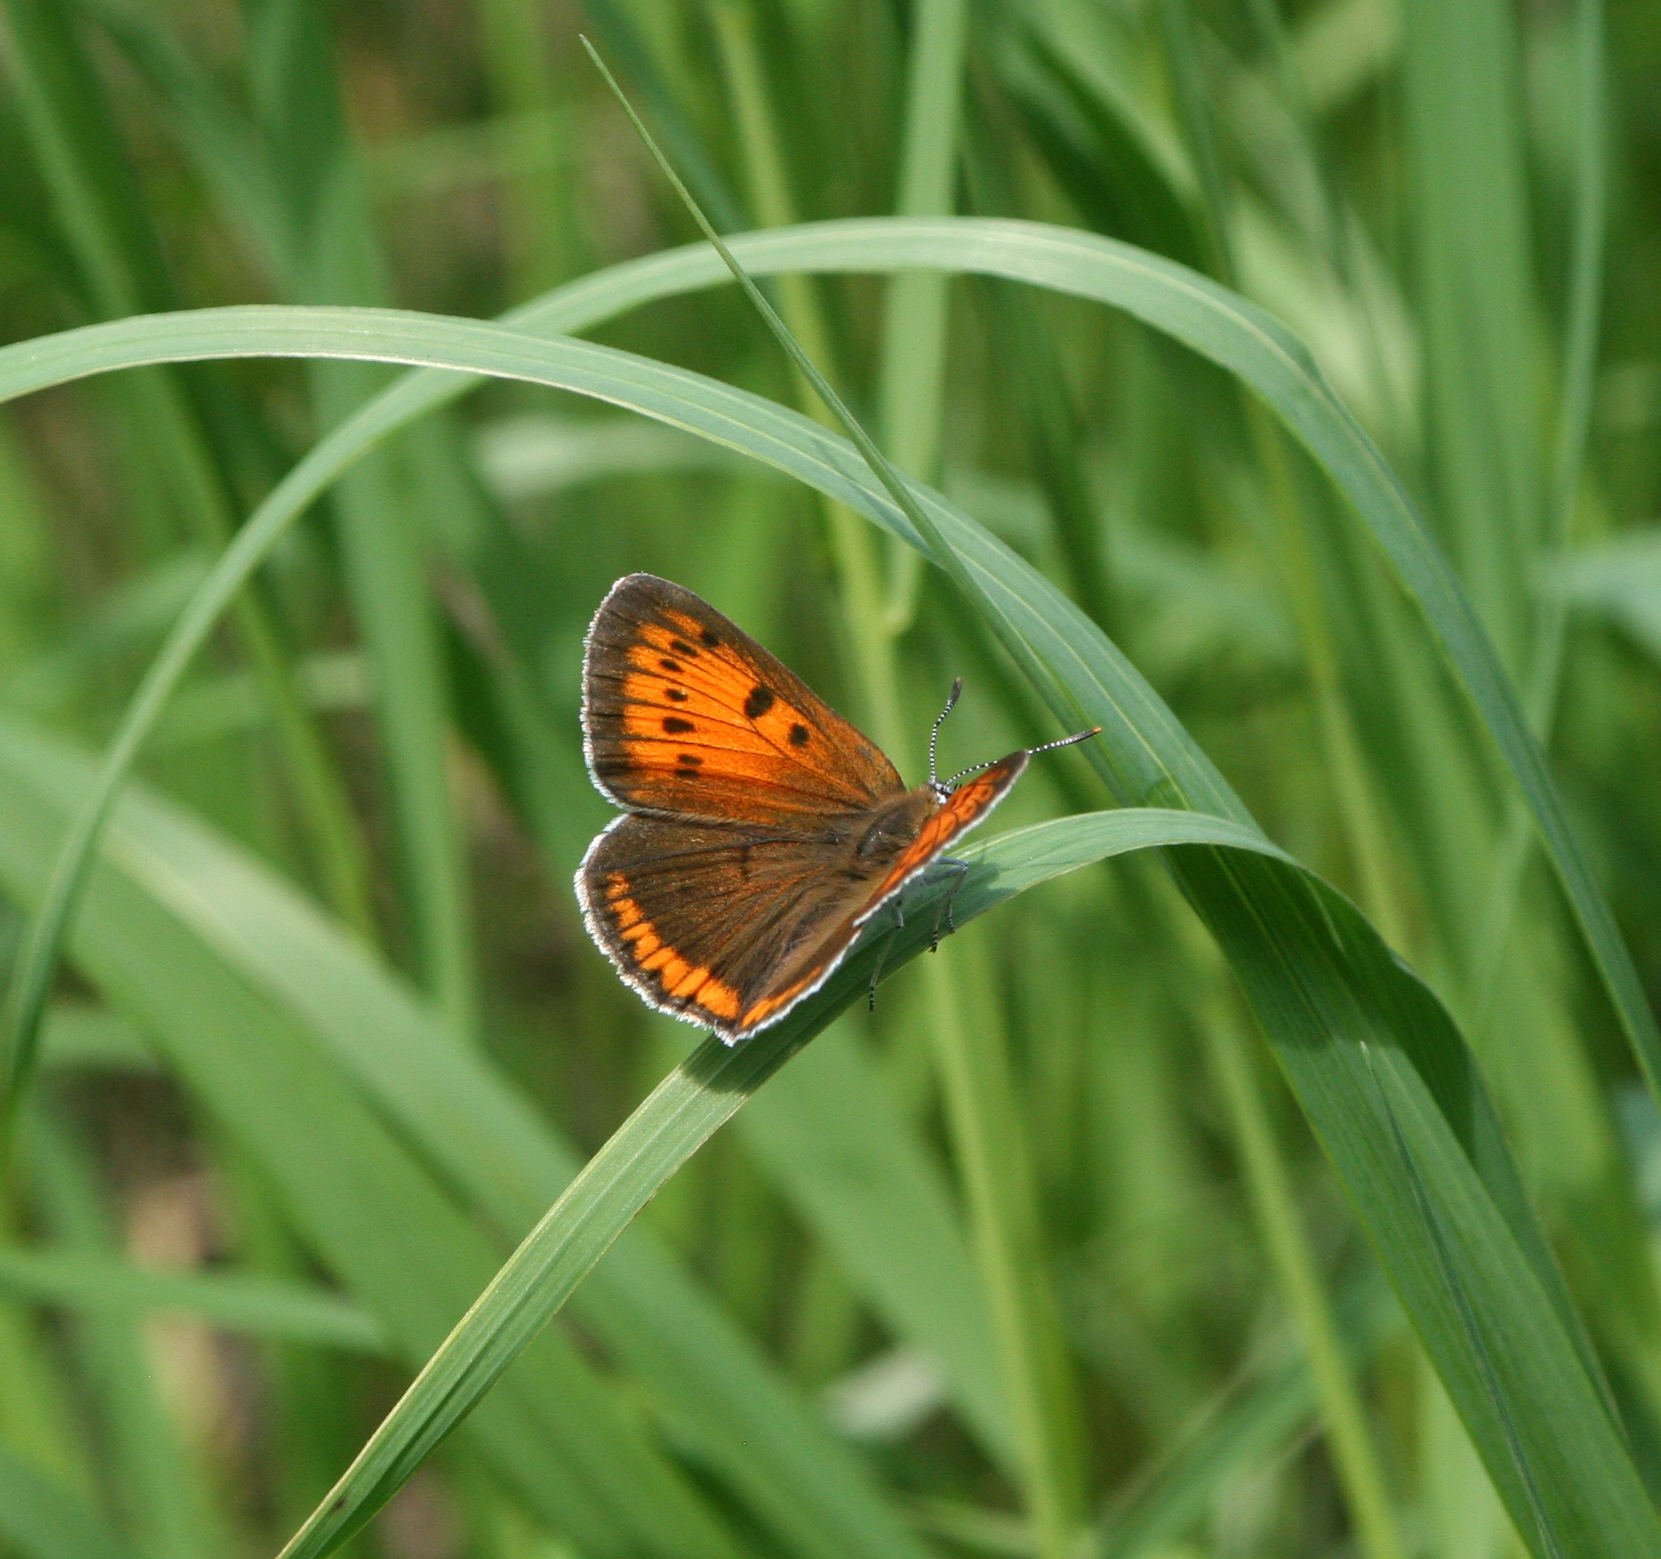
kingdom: Animalia
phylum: Arthropoda
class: Insecta
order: Lepidoptera
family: Lycaenidae
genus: Lycaena
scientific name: Lycaena dispar
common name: Large copper
